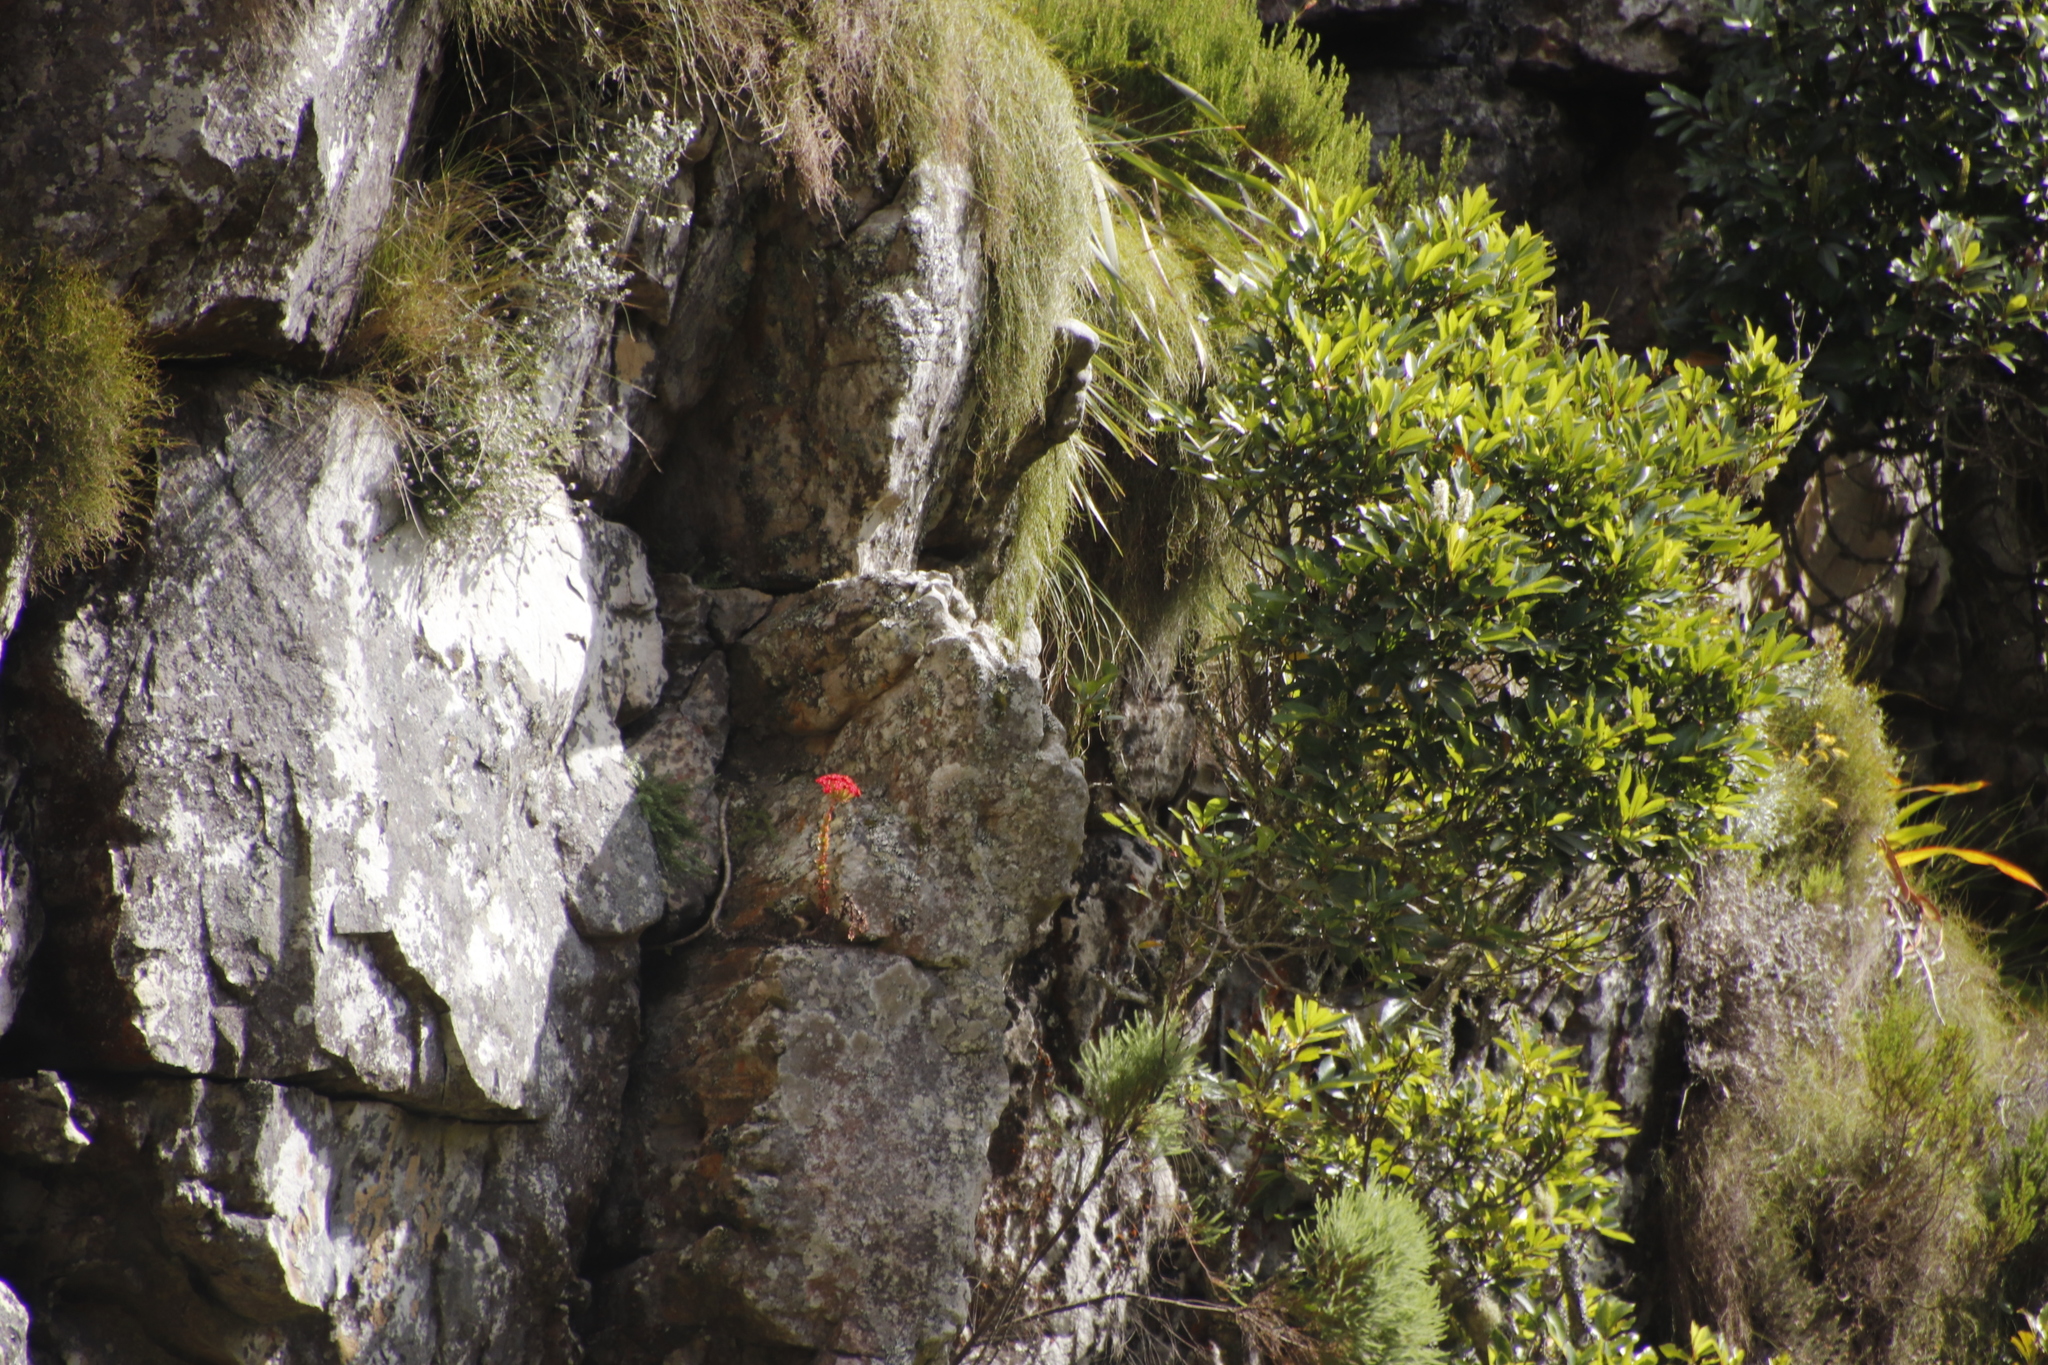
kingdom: Plantae
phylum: Tracheophyta
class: Magnoliopsida
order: Saxifragales
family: Crassulaceae
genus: Crassula
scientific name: Crassula coccinea
